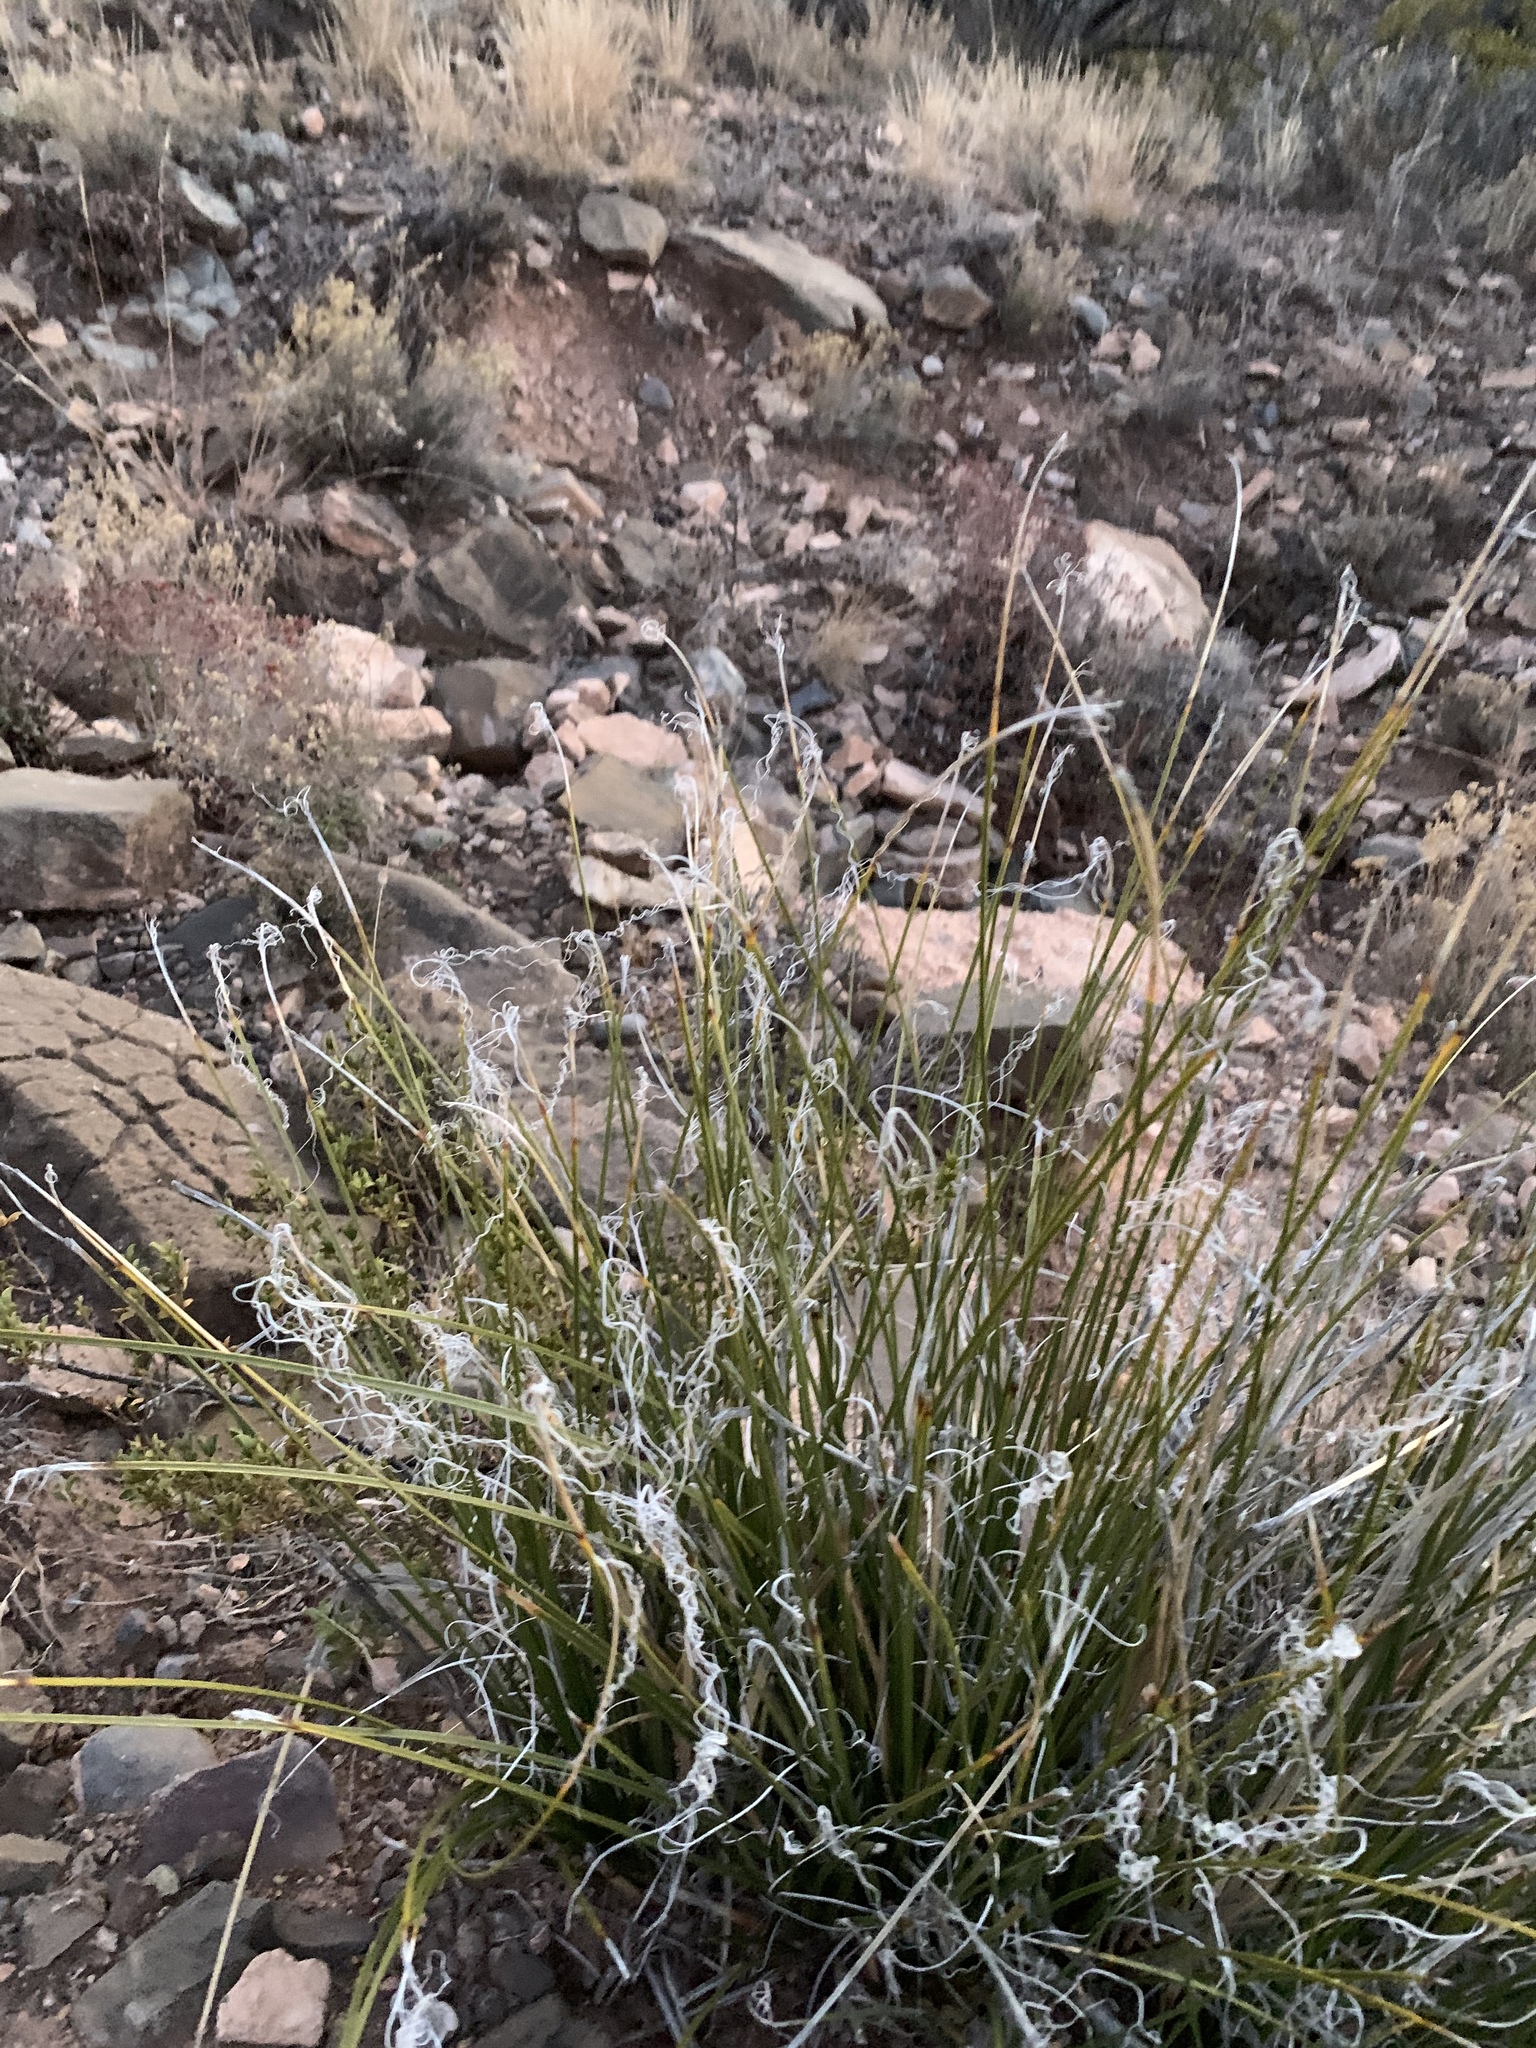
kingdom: Plantae
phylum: Tracheophyta
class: Liliopsida
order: Asparagales
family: Asparagaceae
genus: Nolina
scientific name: Nolina microcarpa
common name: Bear-grass
